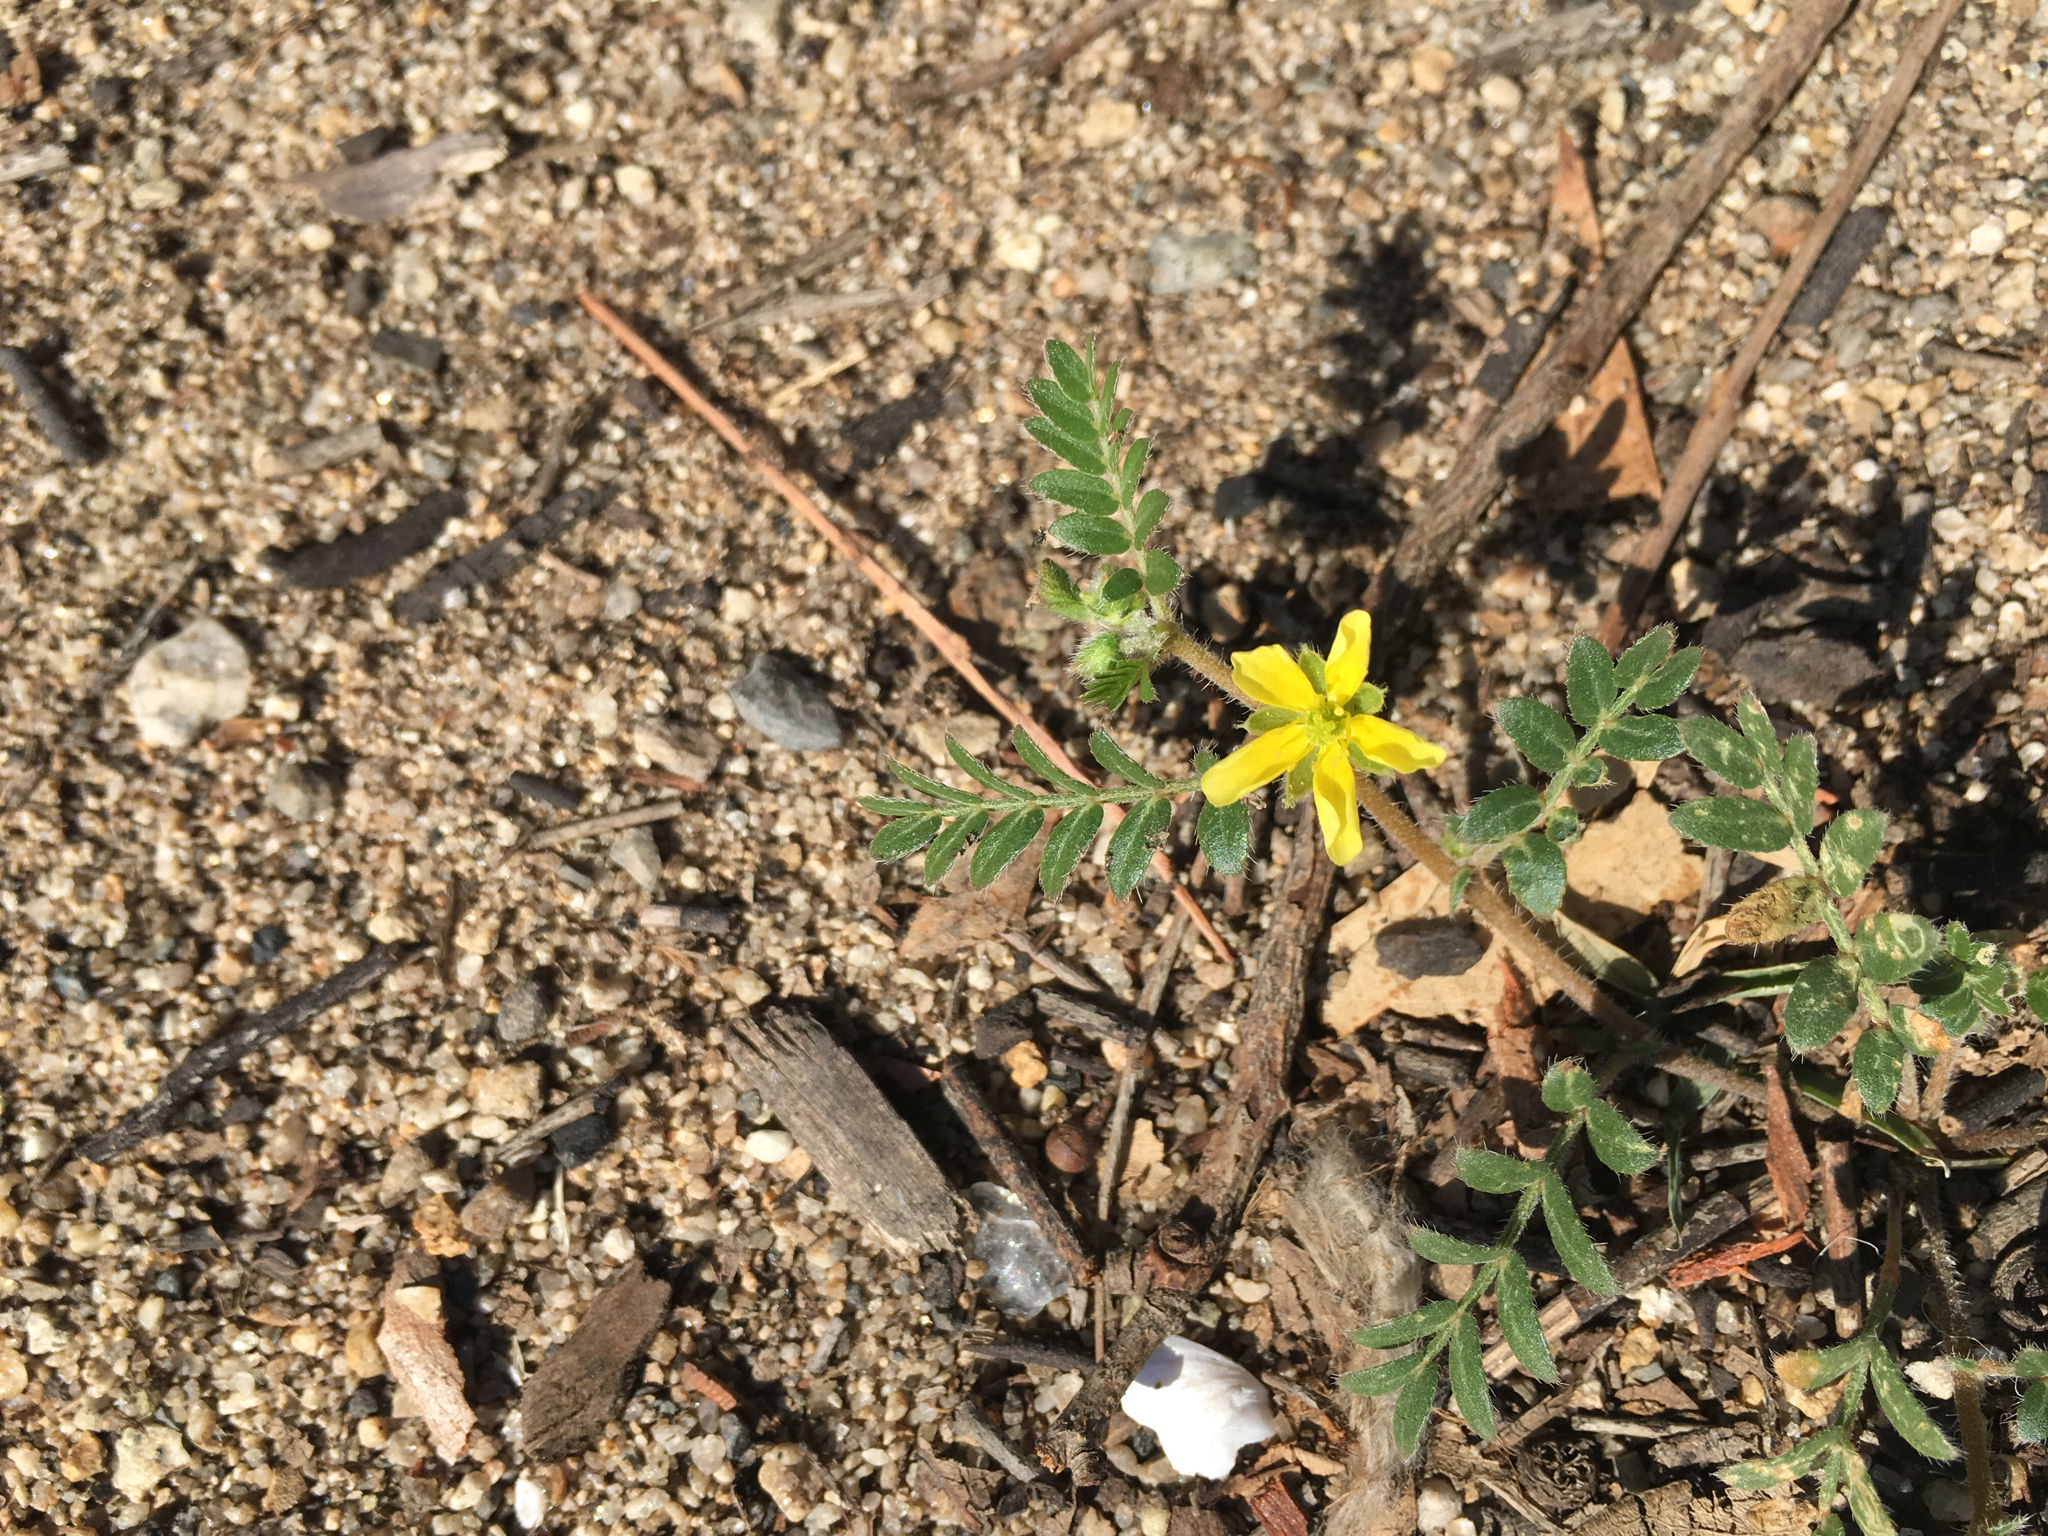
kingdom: Plantae
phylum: Tracheophyta
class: Magnoliopsida
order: Zygophyllales
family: Zygophyllaceae
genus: Tribulus
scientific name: Tribulus terrestris
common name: Puncturevine
